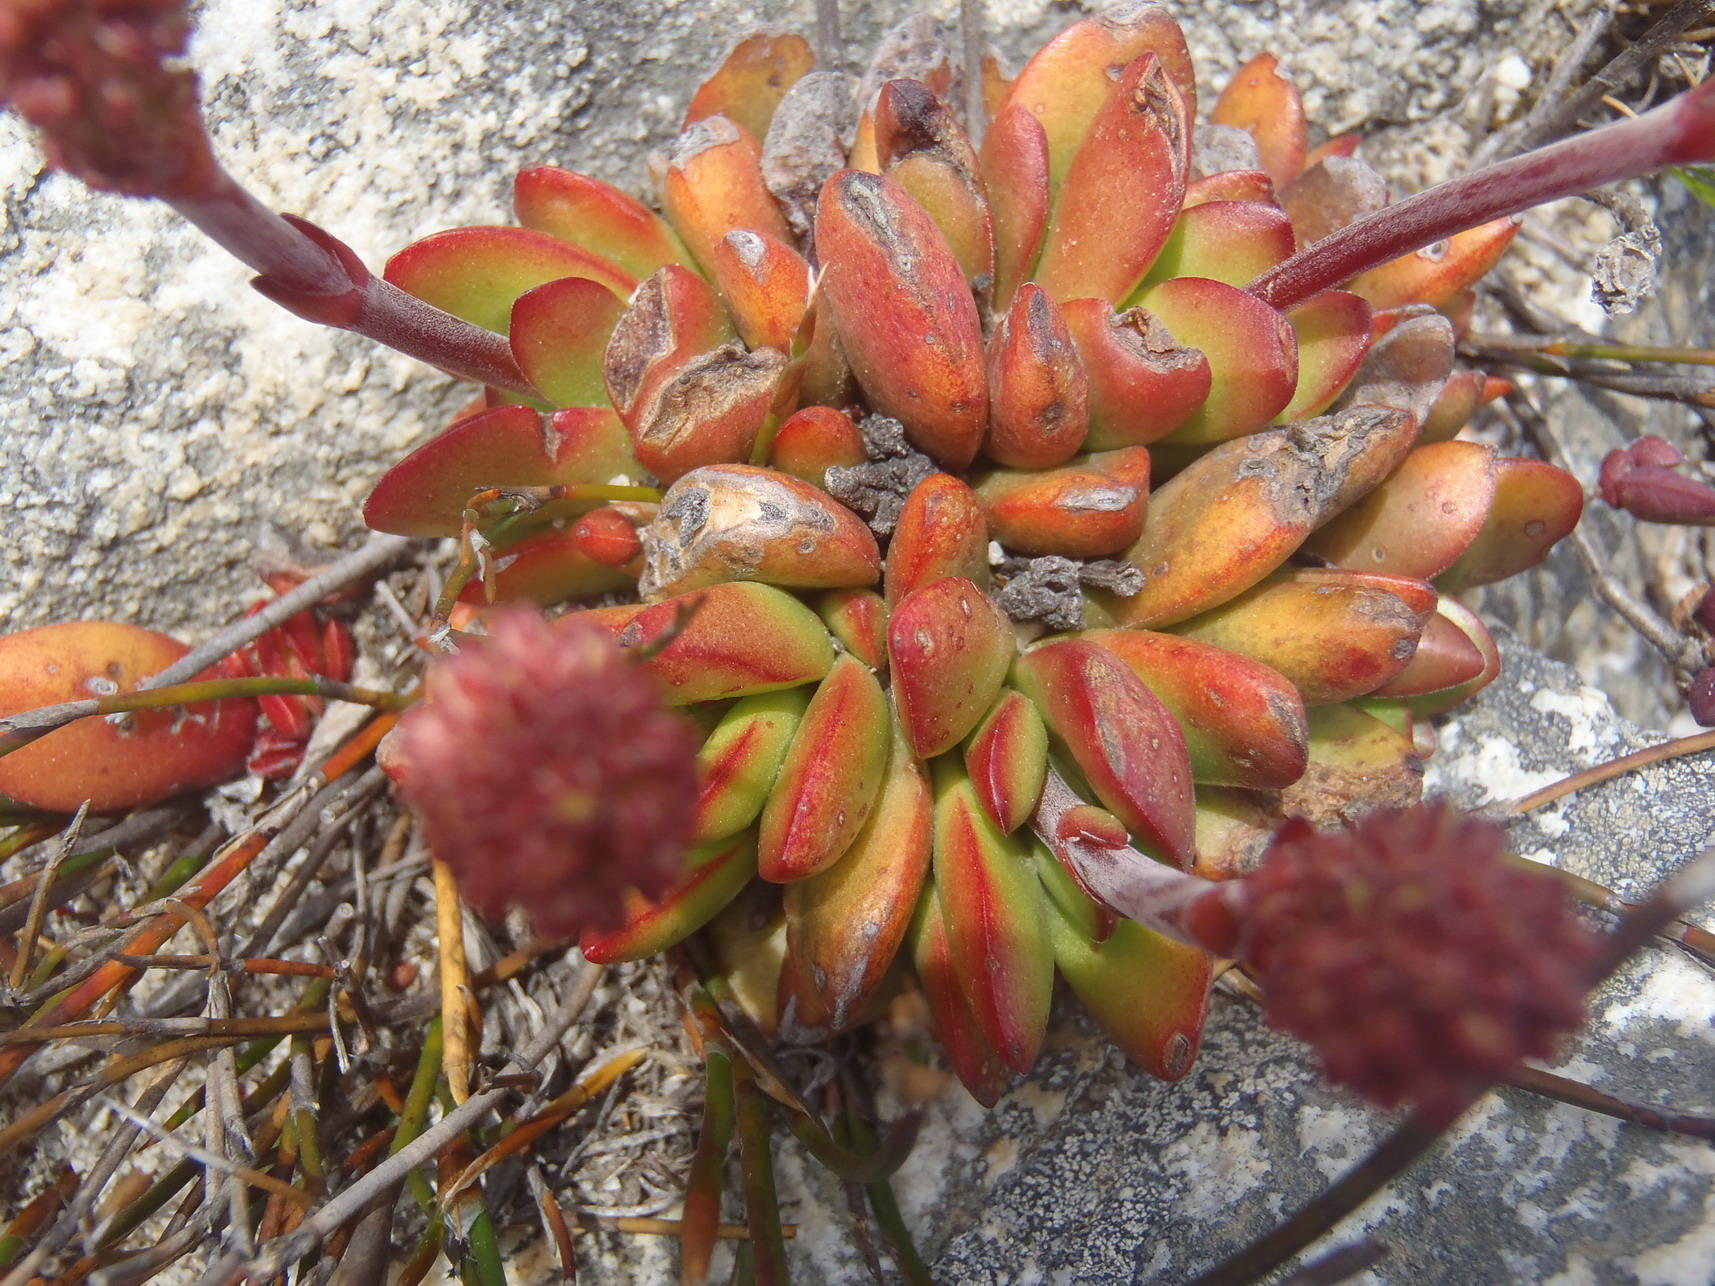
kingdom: Plantae
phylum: Tracheophyta
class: Magnoliopsida
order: Saxifragales
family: Crassulaceae
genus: Crassula
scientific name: Crassula atropurpurea
